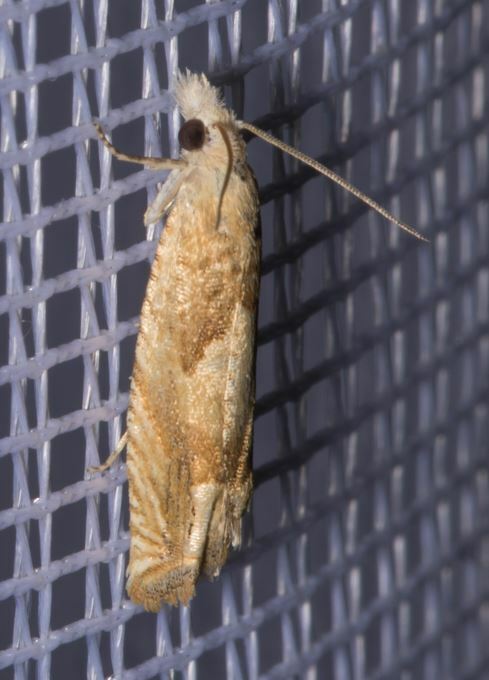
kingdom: Animalia
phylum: Arthropoda
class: Insecta
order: Lepidoptera
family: Tortricidae
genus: Eucosma
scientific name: Eucosma conterminana
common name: Pale lettuce bell
